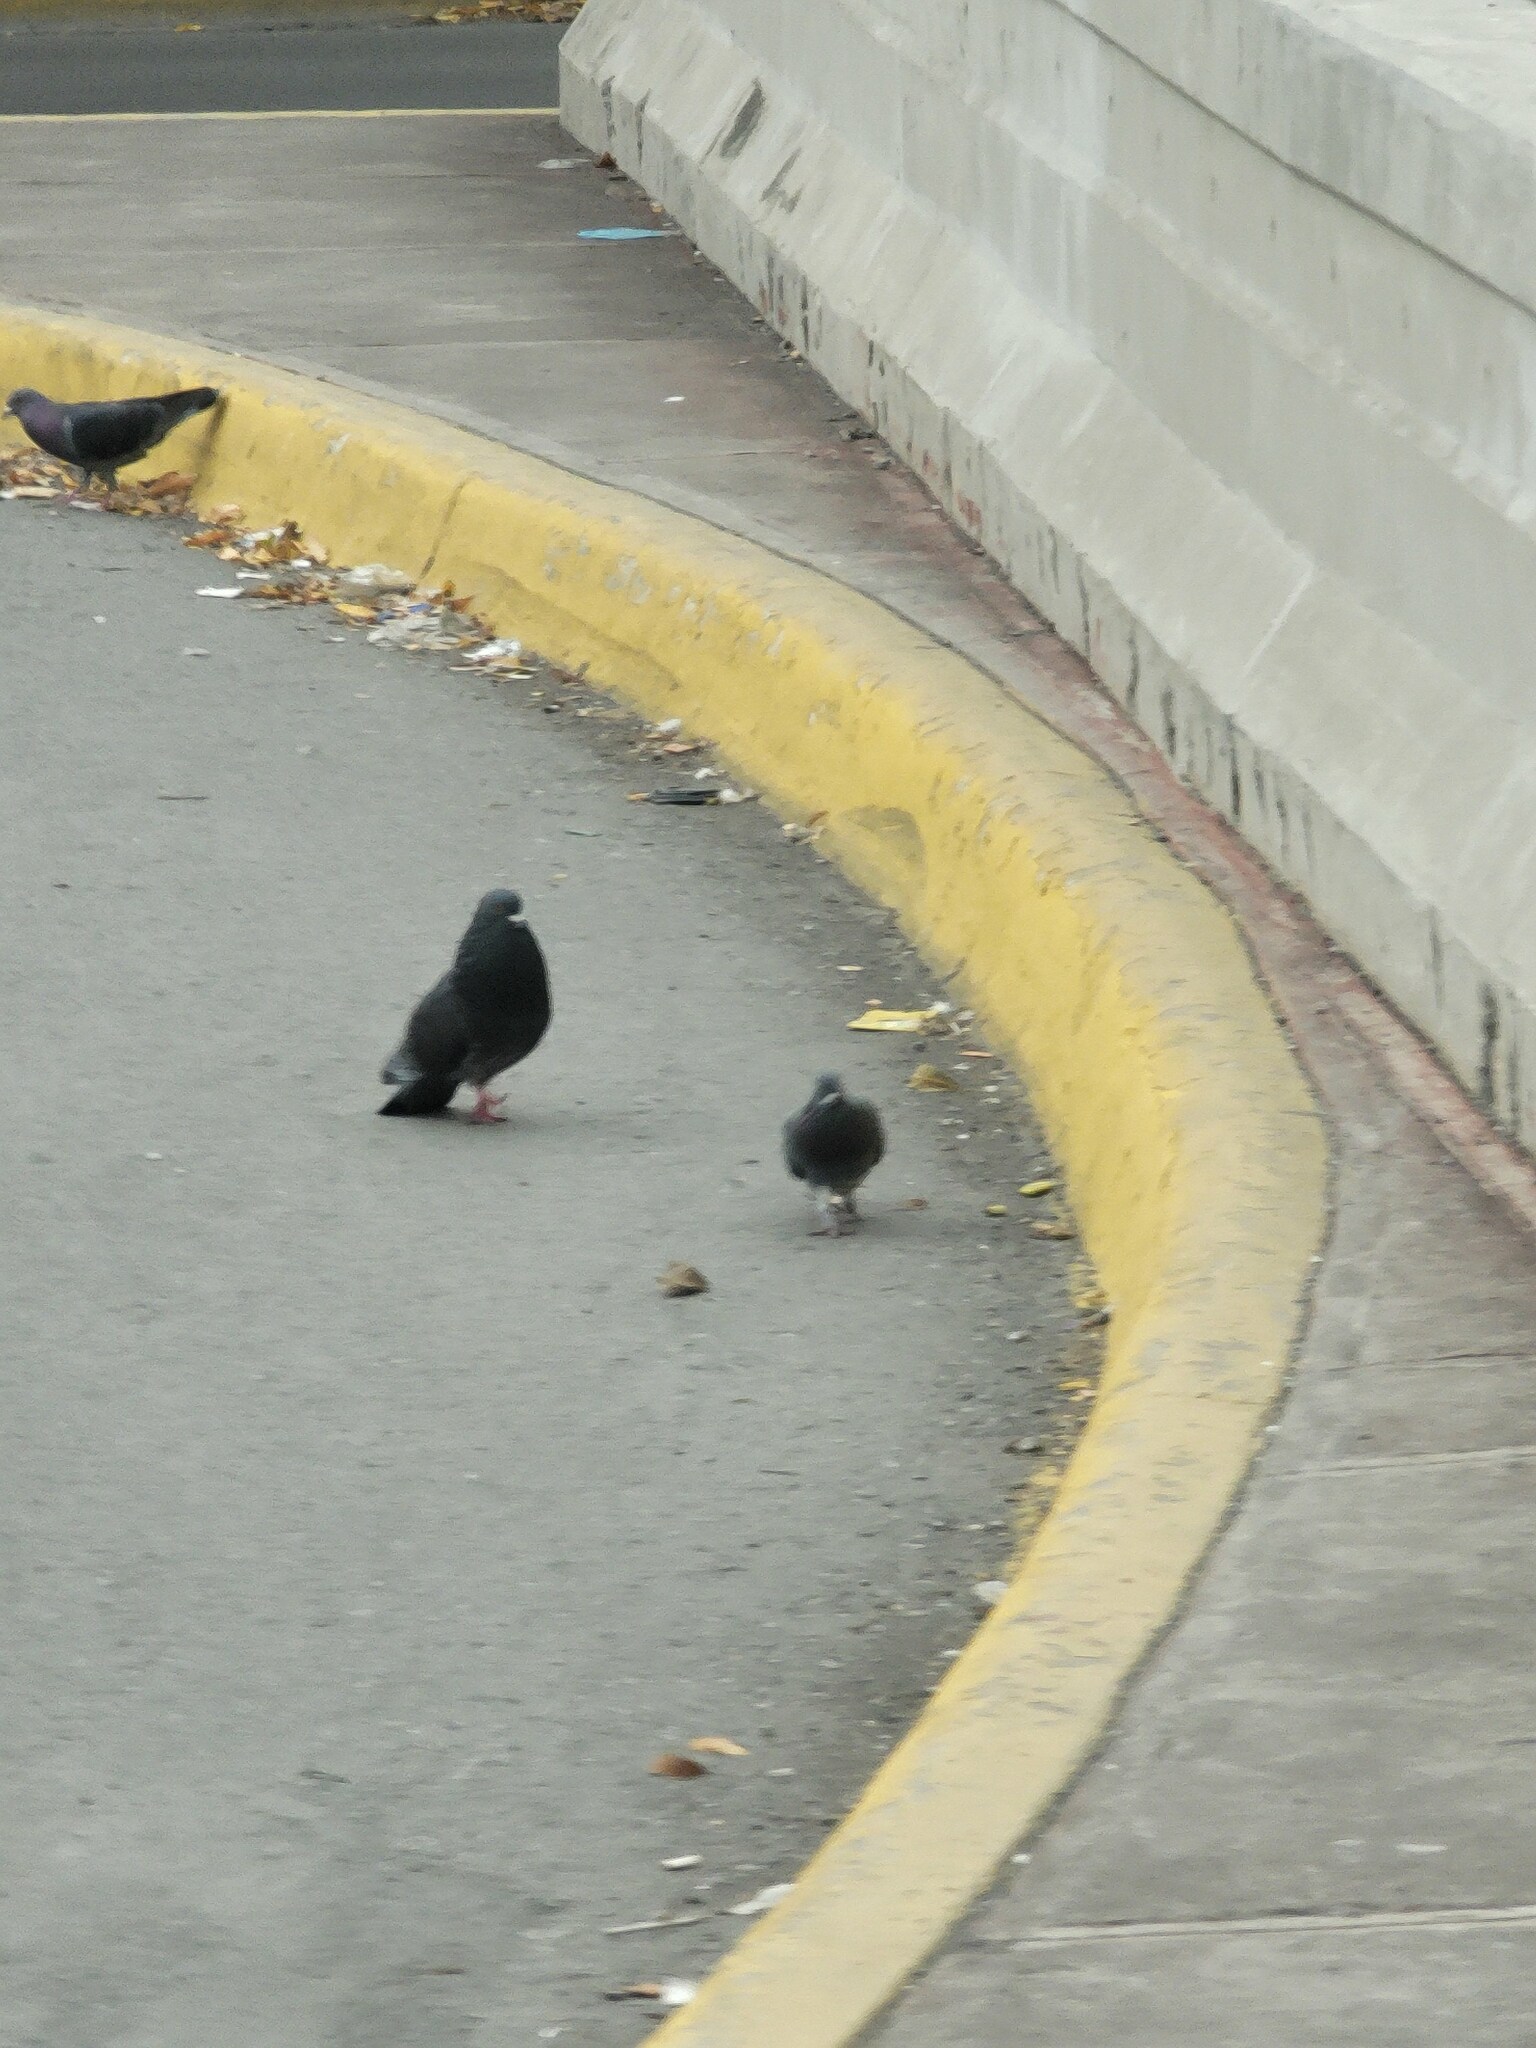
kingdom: Animalia
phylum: Chordata
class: Aves
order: Columbiformes
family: Columbidae
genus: Columba
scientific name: Columba livia
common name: Rock pigeon
